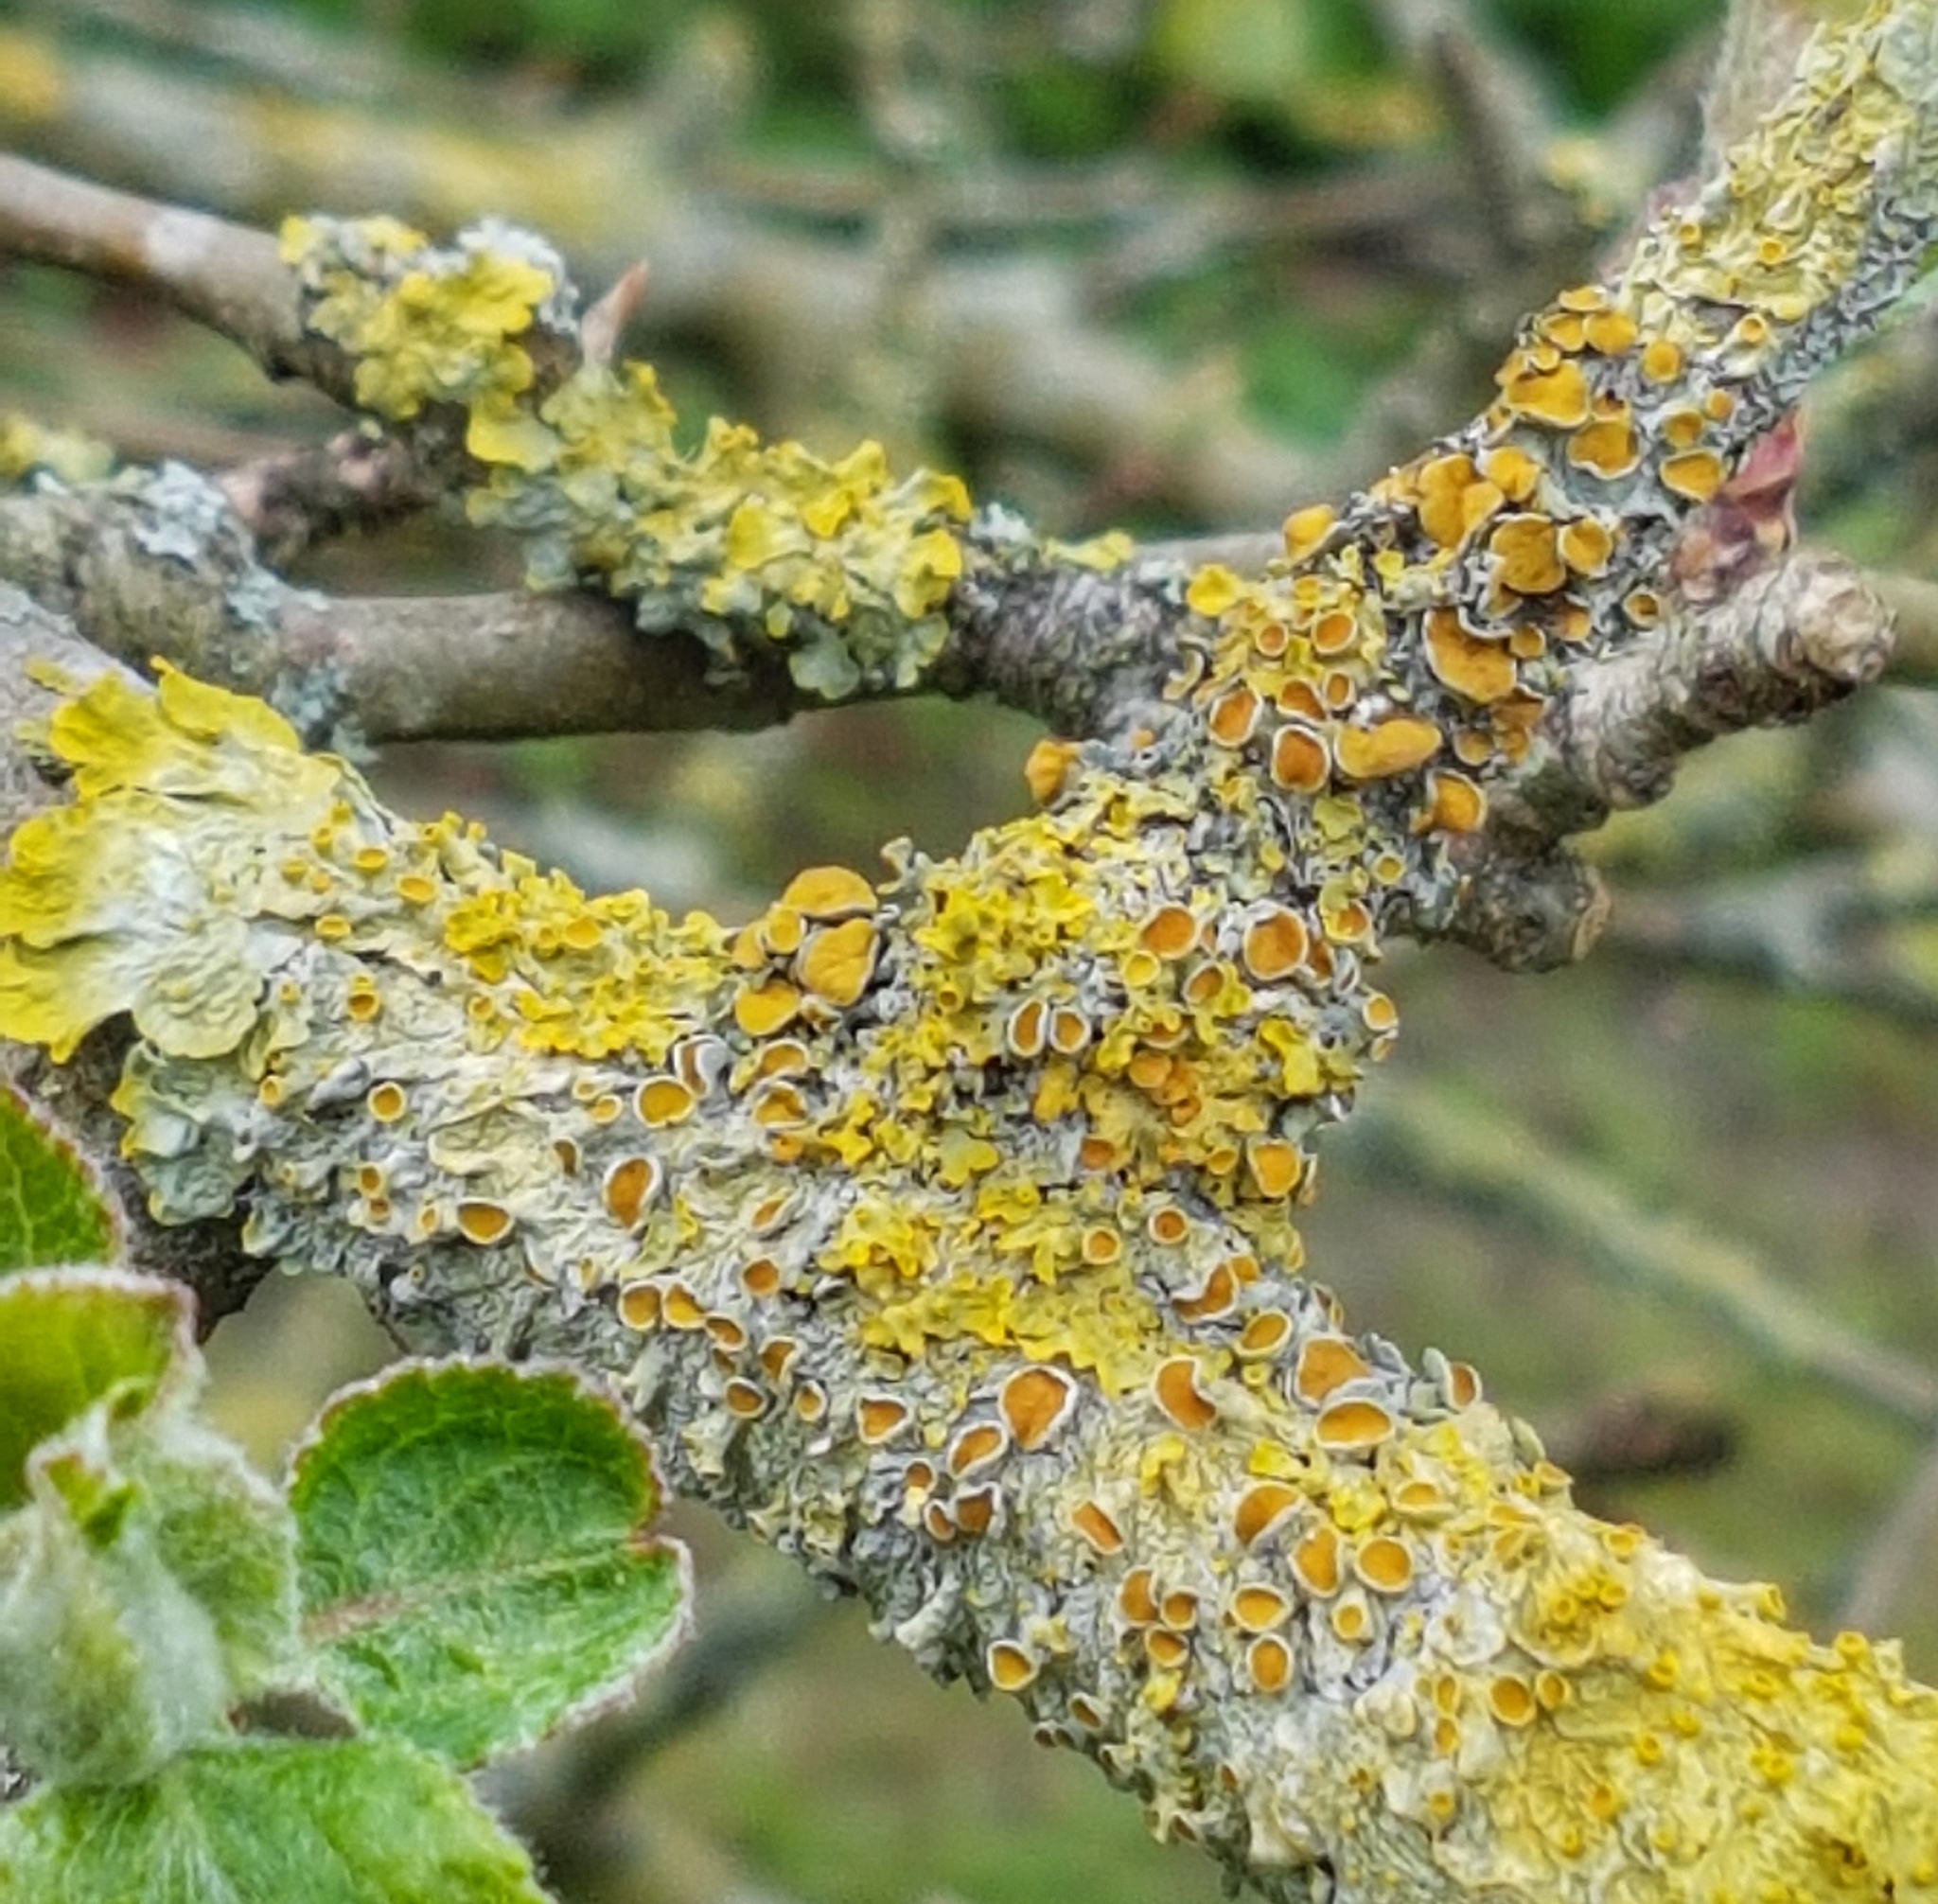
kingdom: Fungi
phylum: Ascomycota
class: Lecanoromycetes
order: Teloschistales
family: Teloschistaceae
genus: Xanthoria
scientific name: Xanthoria parietina
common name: Common orange lichen
